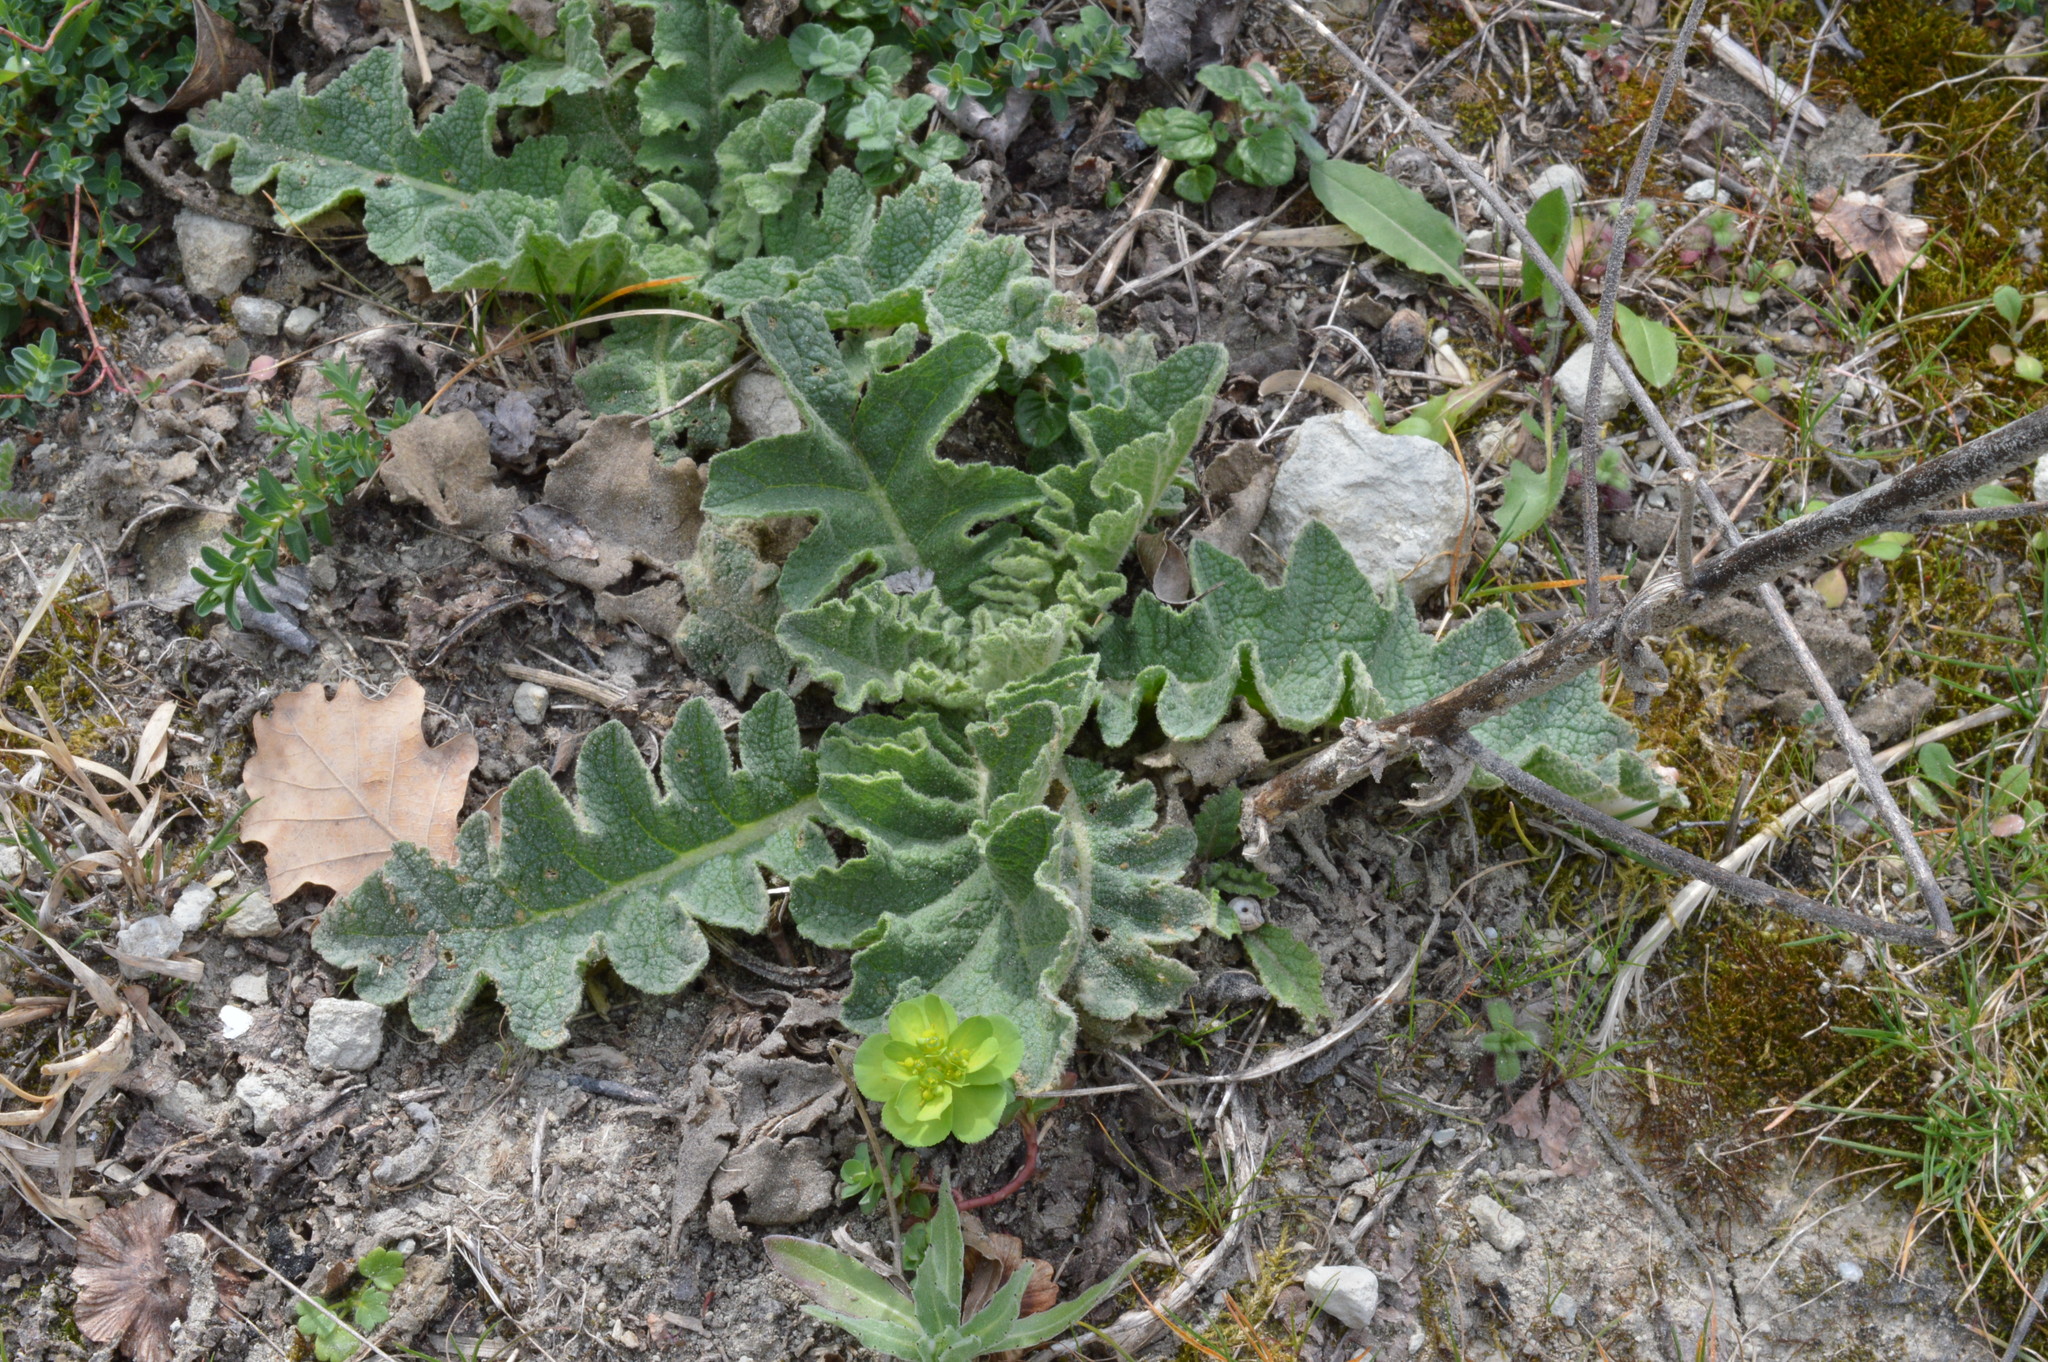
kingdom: Plantae
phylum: Tracheophyta
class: Magnoliopsida
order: Lamiales
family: Scrophulariaceae
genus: Verbascum
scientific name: Verbascum sinuatum
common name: Wavyleaf mullein
